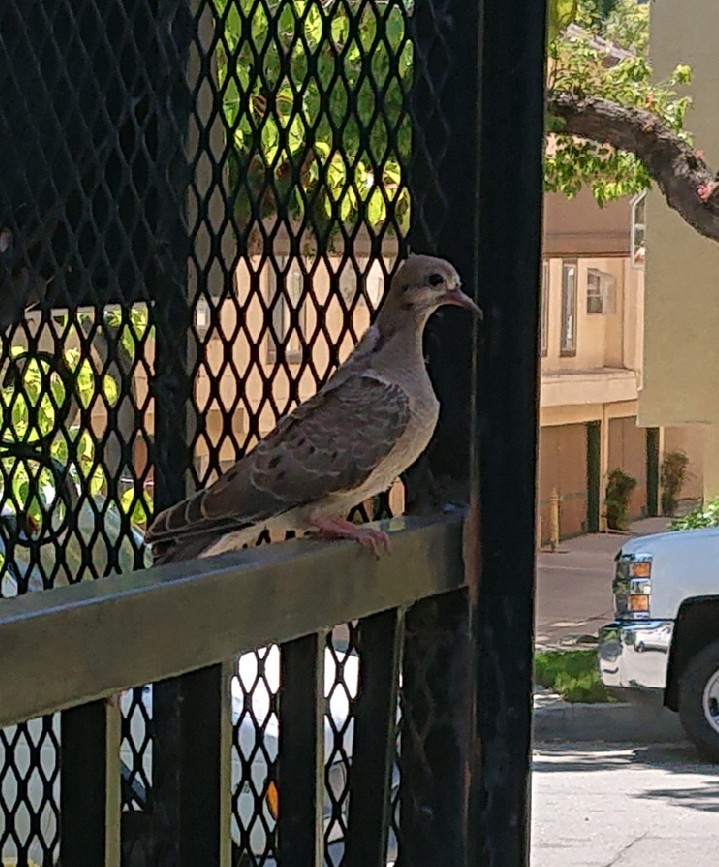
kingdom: Animalia
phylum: Chordata
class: Aves
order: Columbiformes
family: Columbidae
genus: Zenaida
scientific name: Zenaida macroura
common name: Mourning dove
